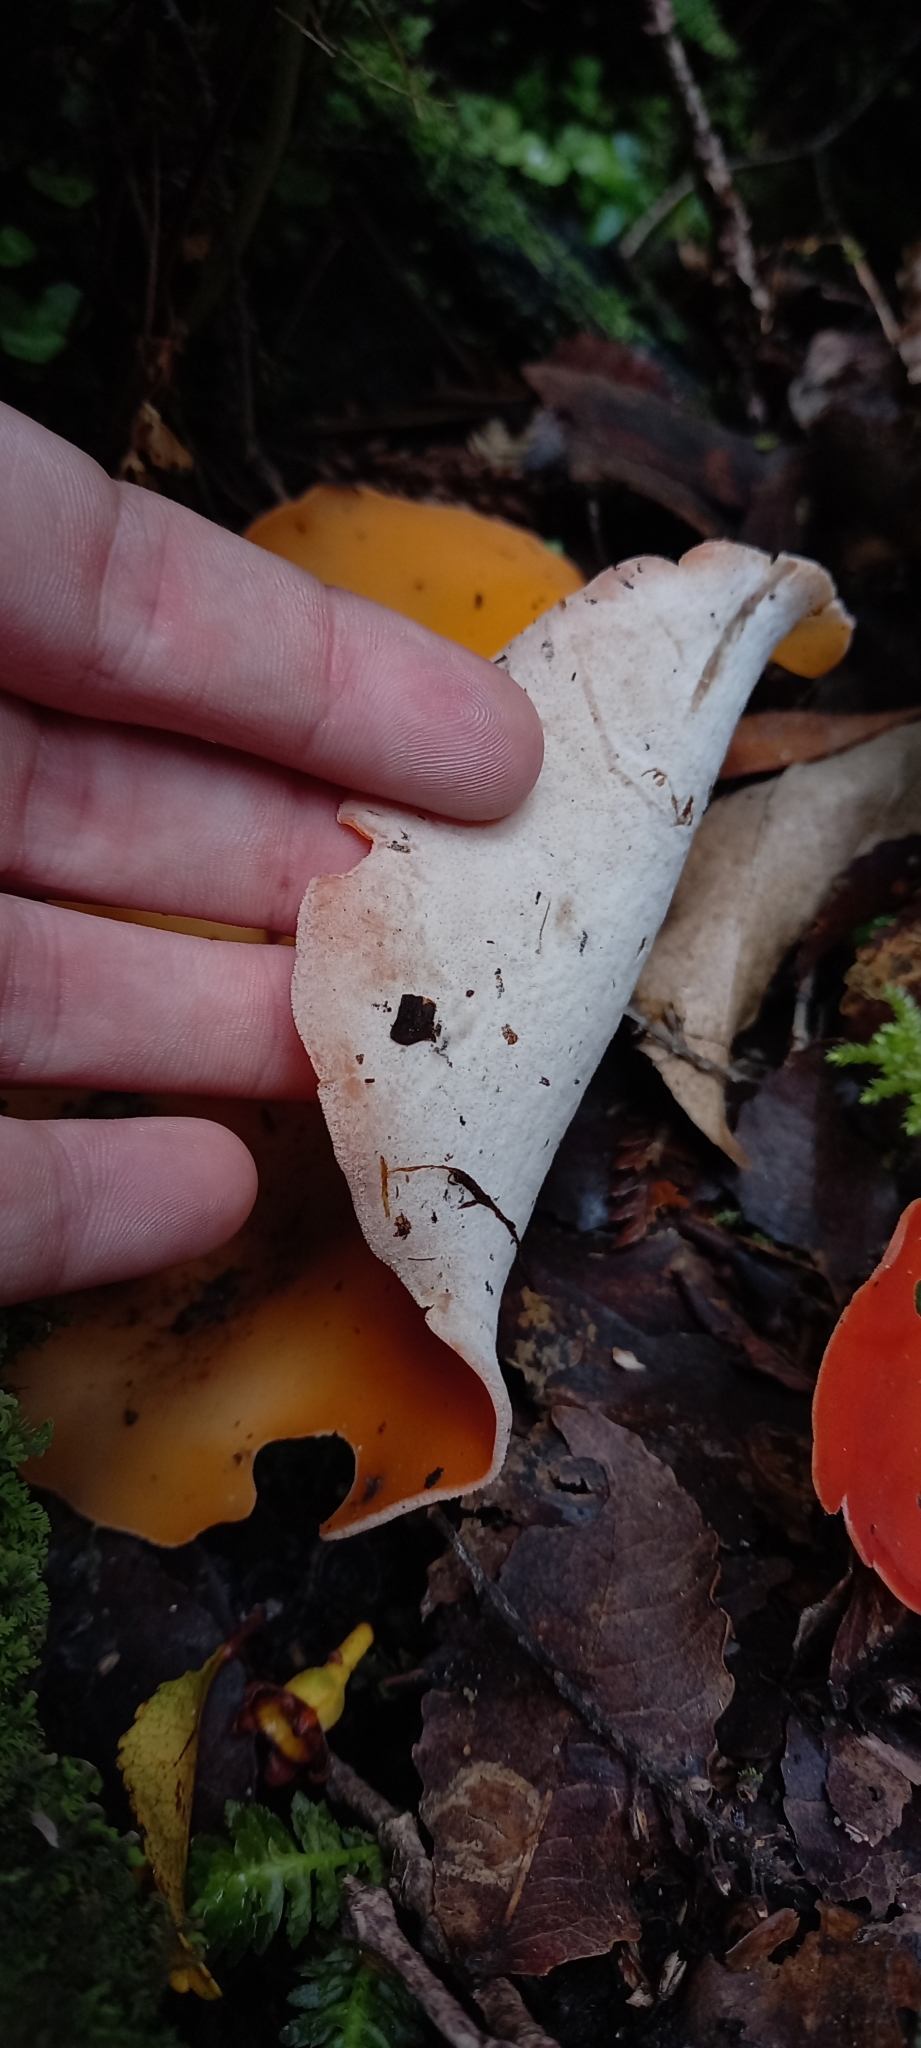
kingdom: Fungi
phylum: Ascomycota
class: Pezizomycetes
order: Pezizales
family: Pyronemataceae
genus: Aleuria
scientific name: Aleuria aurantia
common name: Orange peel fungus
